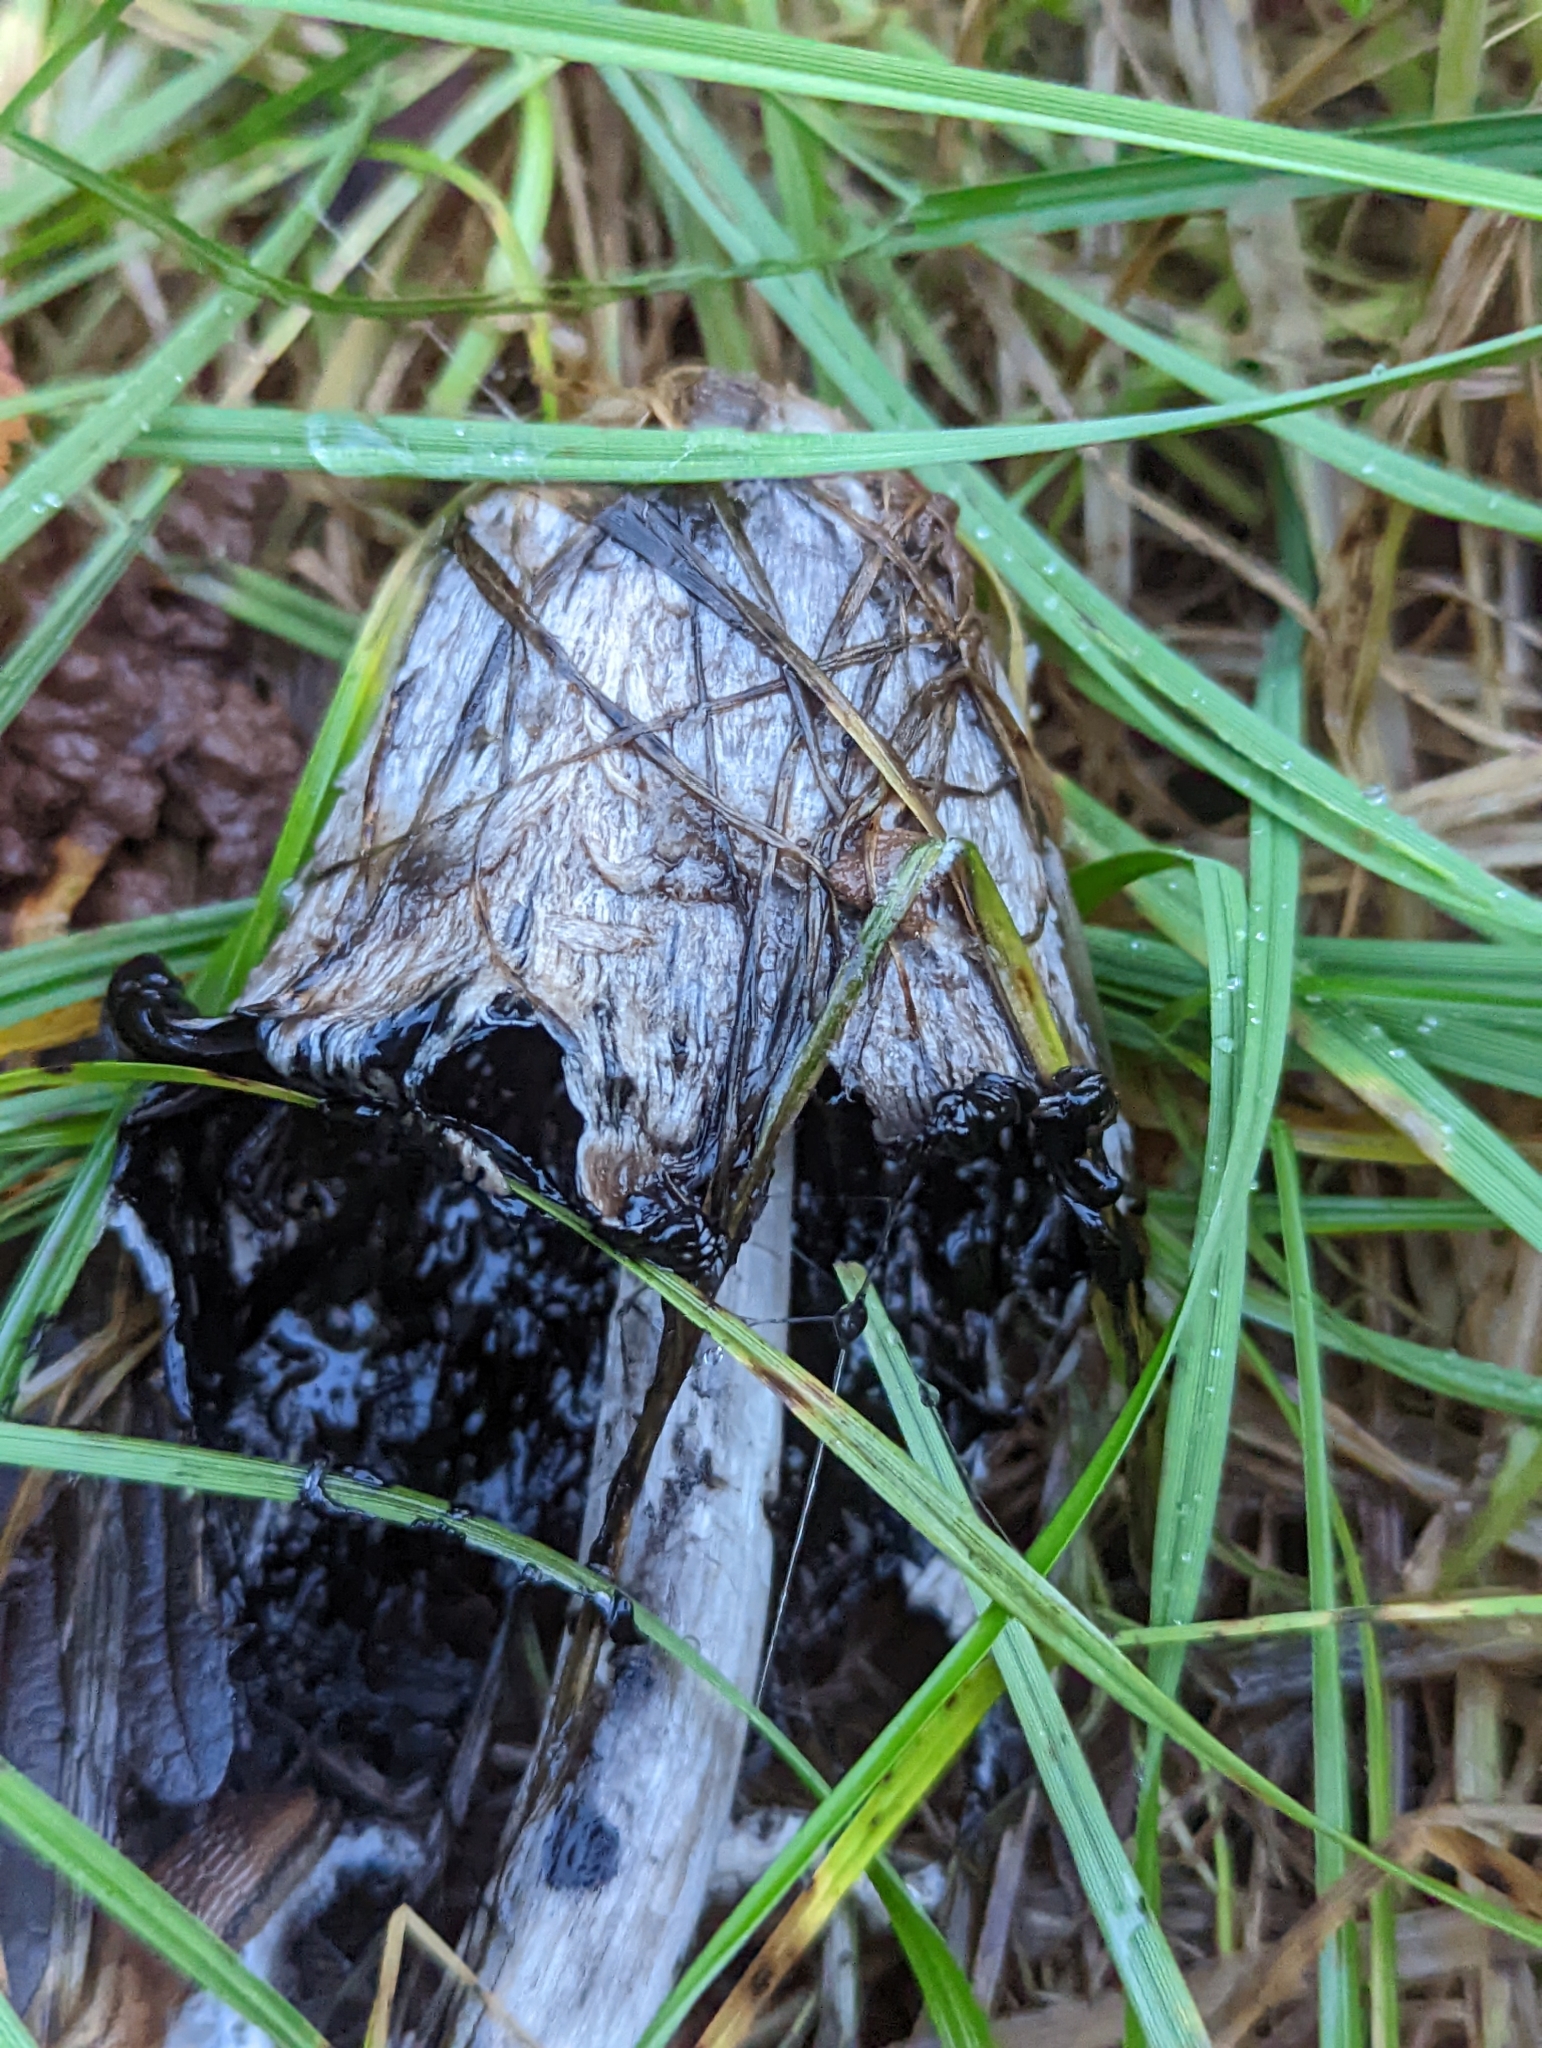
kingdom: Fungi
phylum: Basidiomycota
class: Agaricomycetes
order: Agaricales
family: Agaricaceae
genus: Coprinus
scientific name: Coprinus comatus
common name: Lawyer's wig
